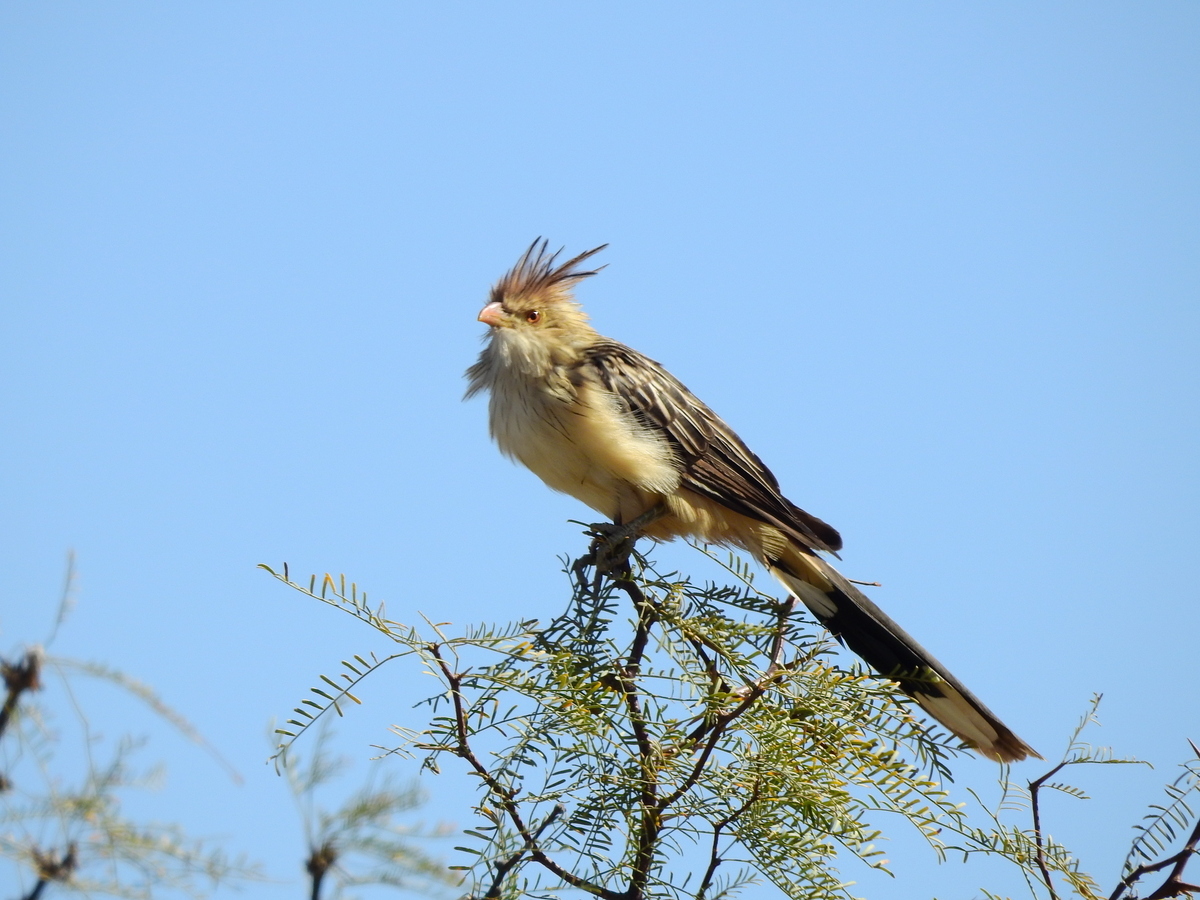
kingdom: Animalia
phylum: Chordata
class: Aves
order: Cuculiformes
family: Cuculidae
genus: Guira
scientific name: Guira guira
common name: Guira cuckoo
